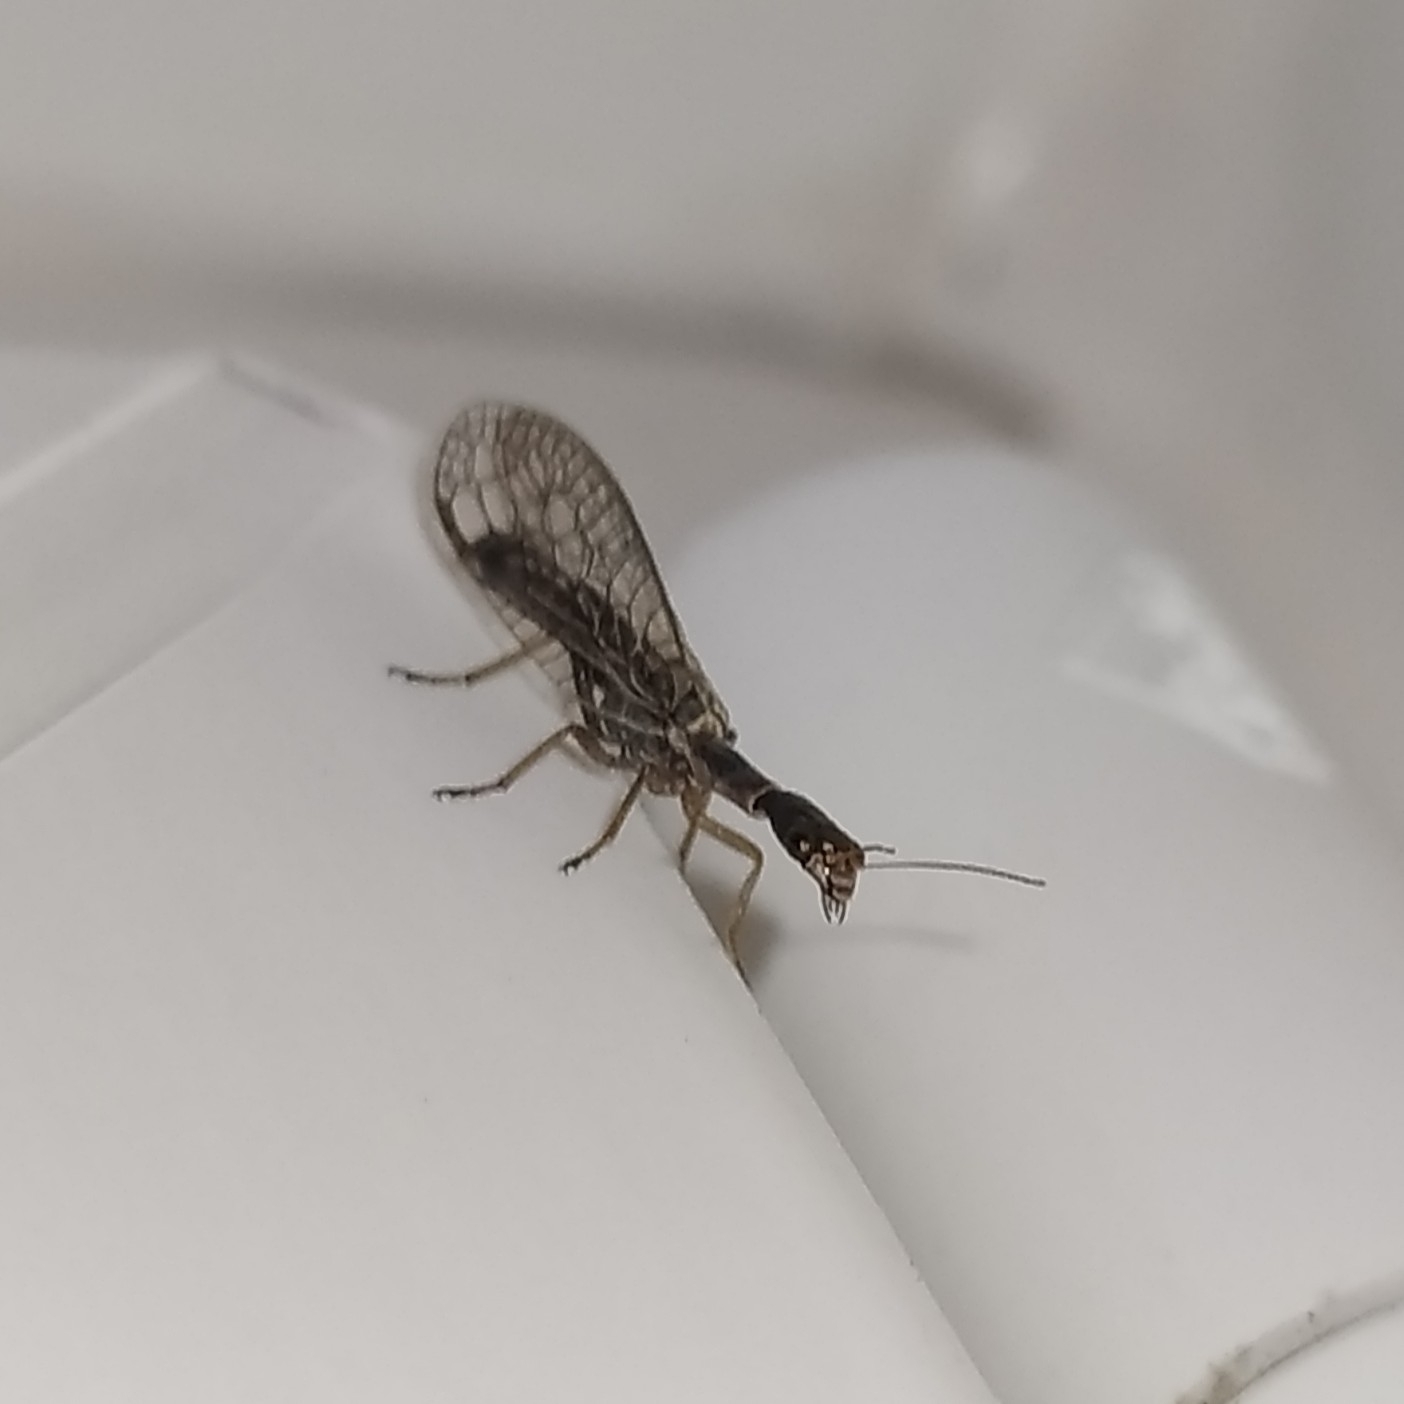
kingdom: Animalia
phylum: Arthropoda
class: Insecta
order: Raphidioptera
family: Raphidiidae
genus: Xanthostigma
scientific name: Xanthostigma xanthostigma
